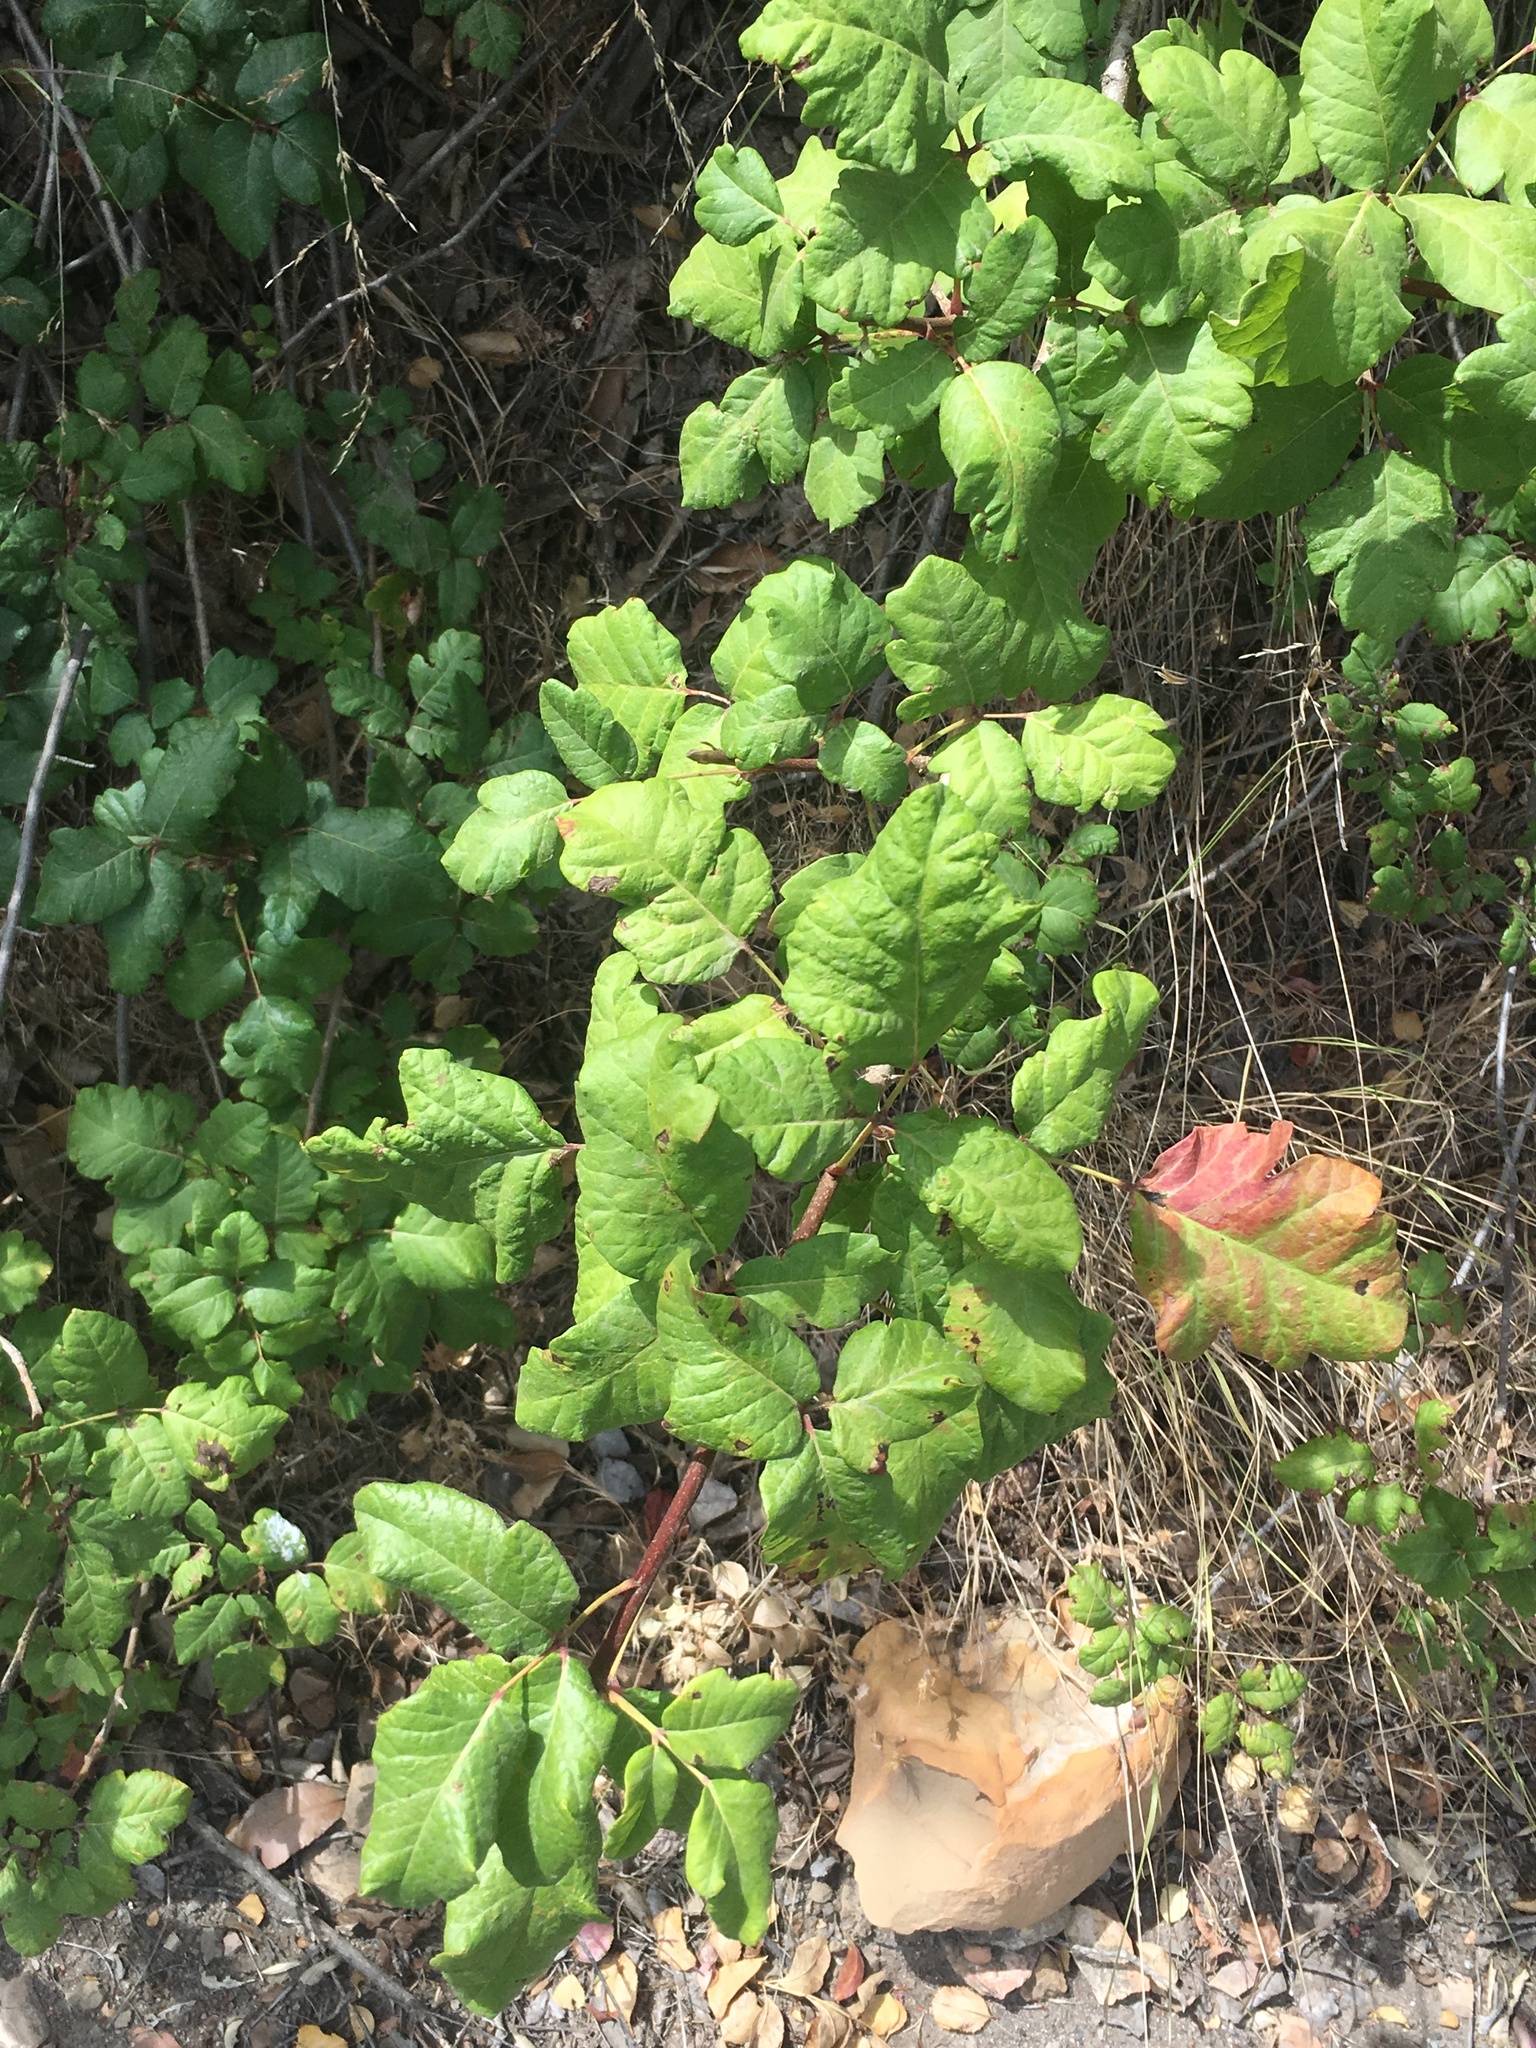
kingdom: Plantae
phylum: Tracheophyta
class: Magnoliopsida
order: Sapindales
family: Anacardiaceae
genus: Toxicodendron
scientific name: Toxicodendron diversilobum
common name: Pacific poison-oak
